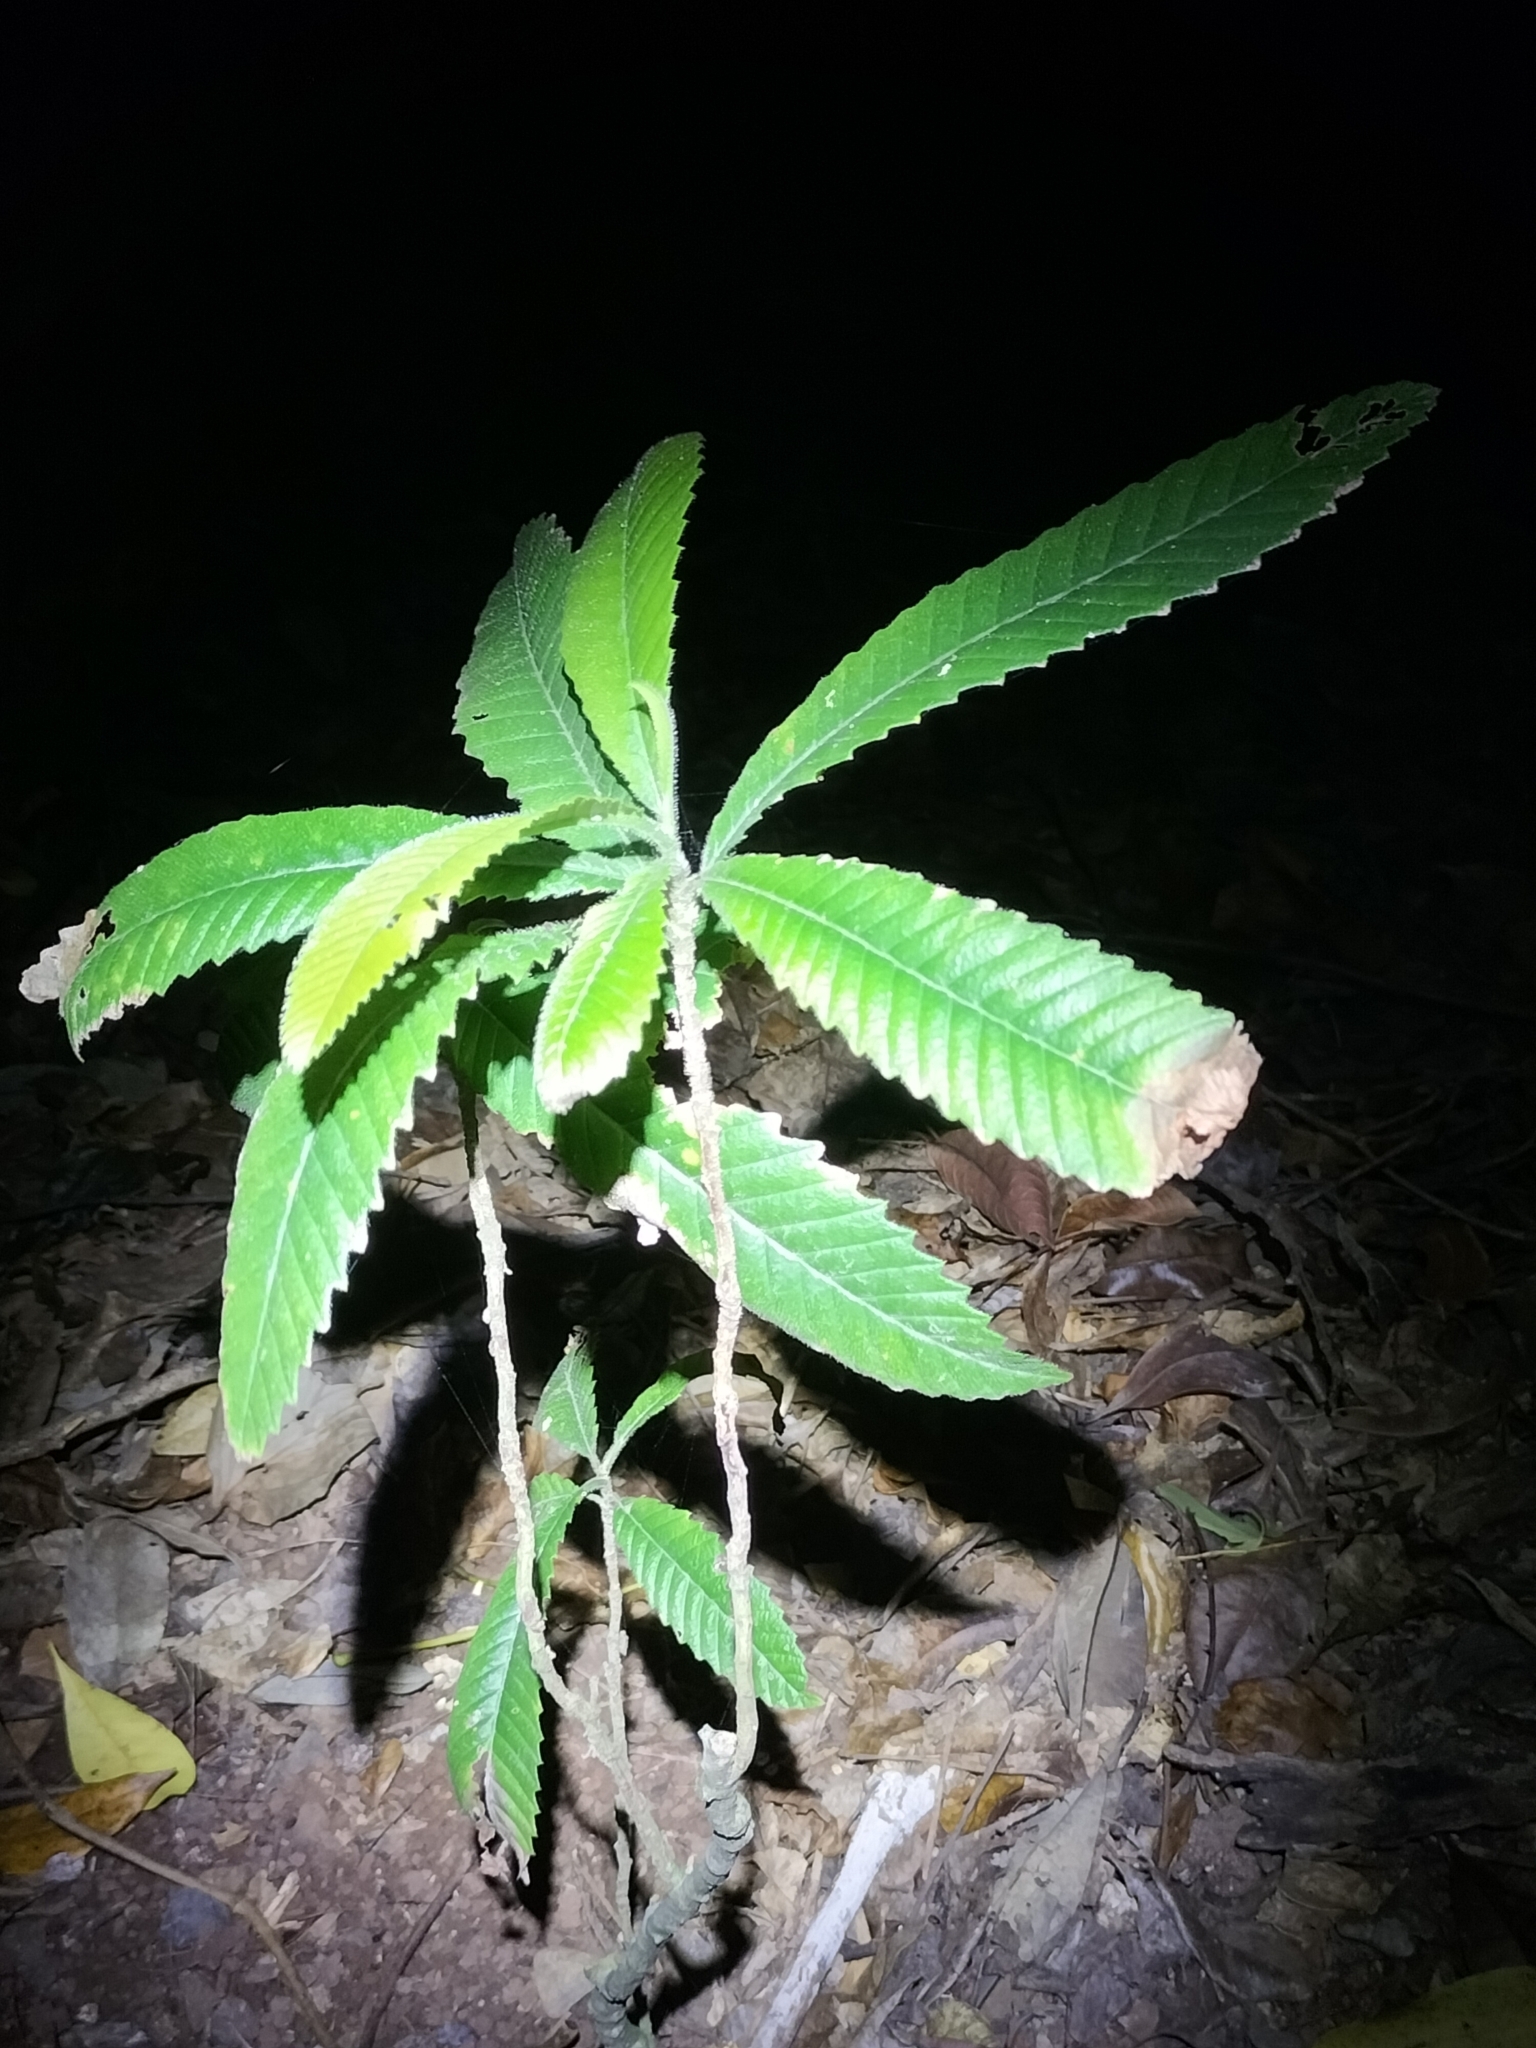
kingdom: Plantae
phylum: Tracheophyta
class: Magnoliopsida
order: Dilleniales
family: Dilleniaceae
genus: Tetracera
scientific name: Tetracera nordtiana
